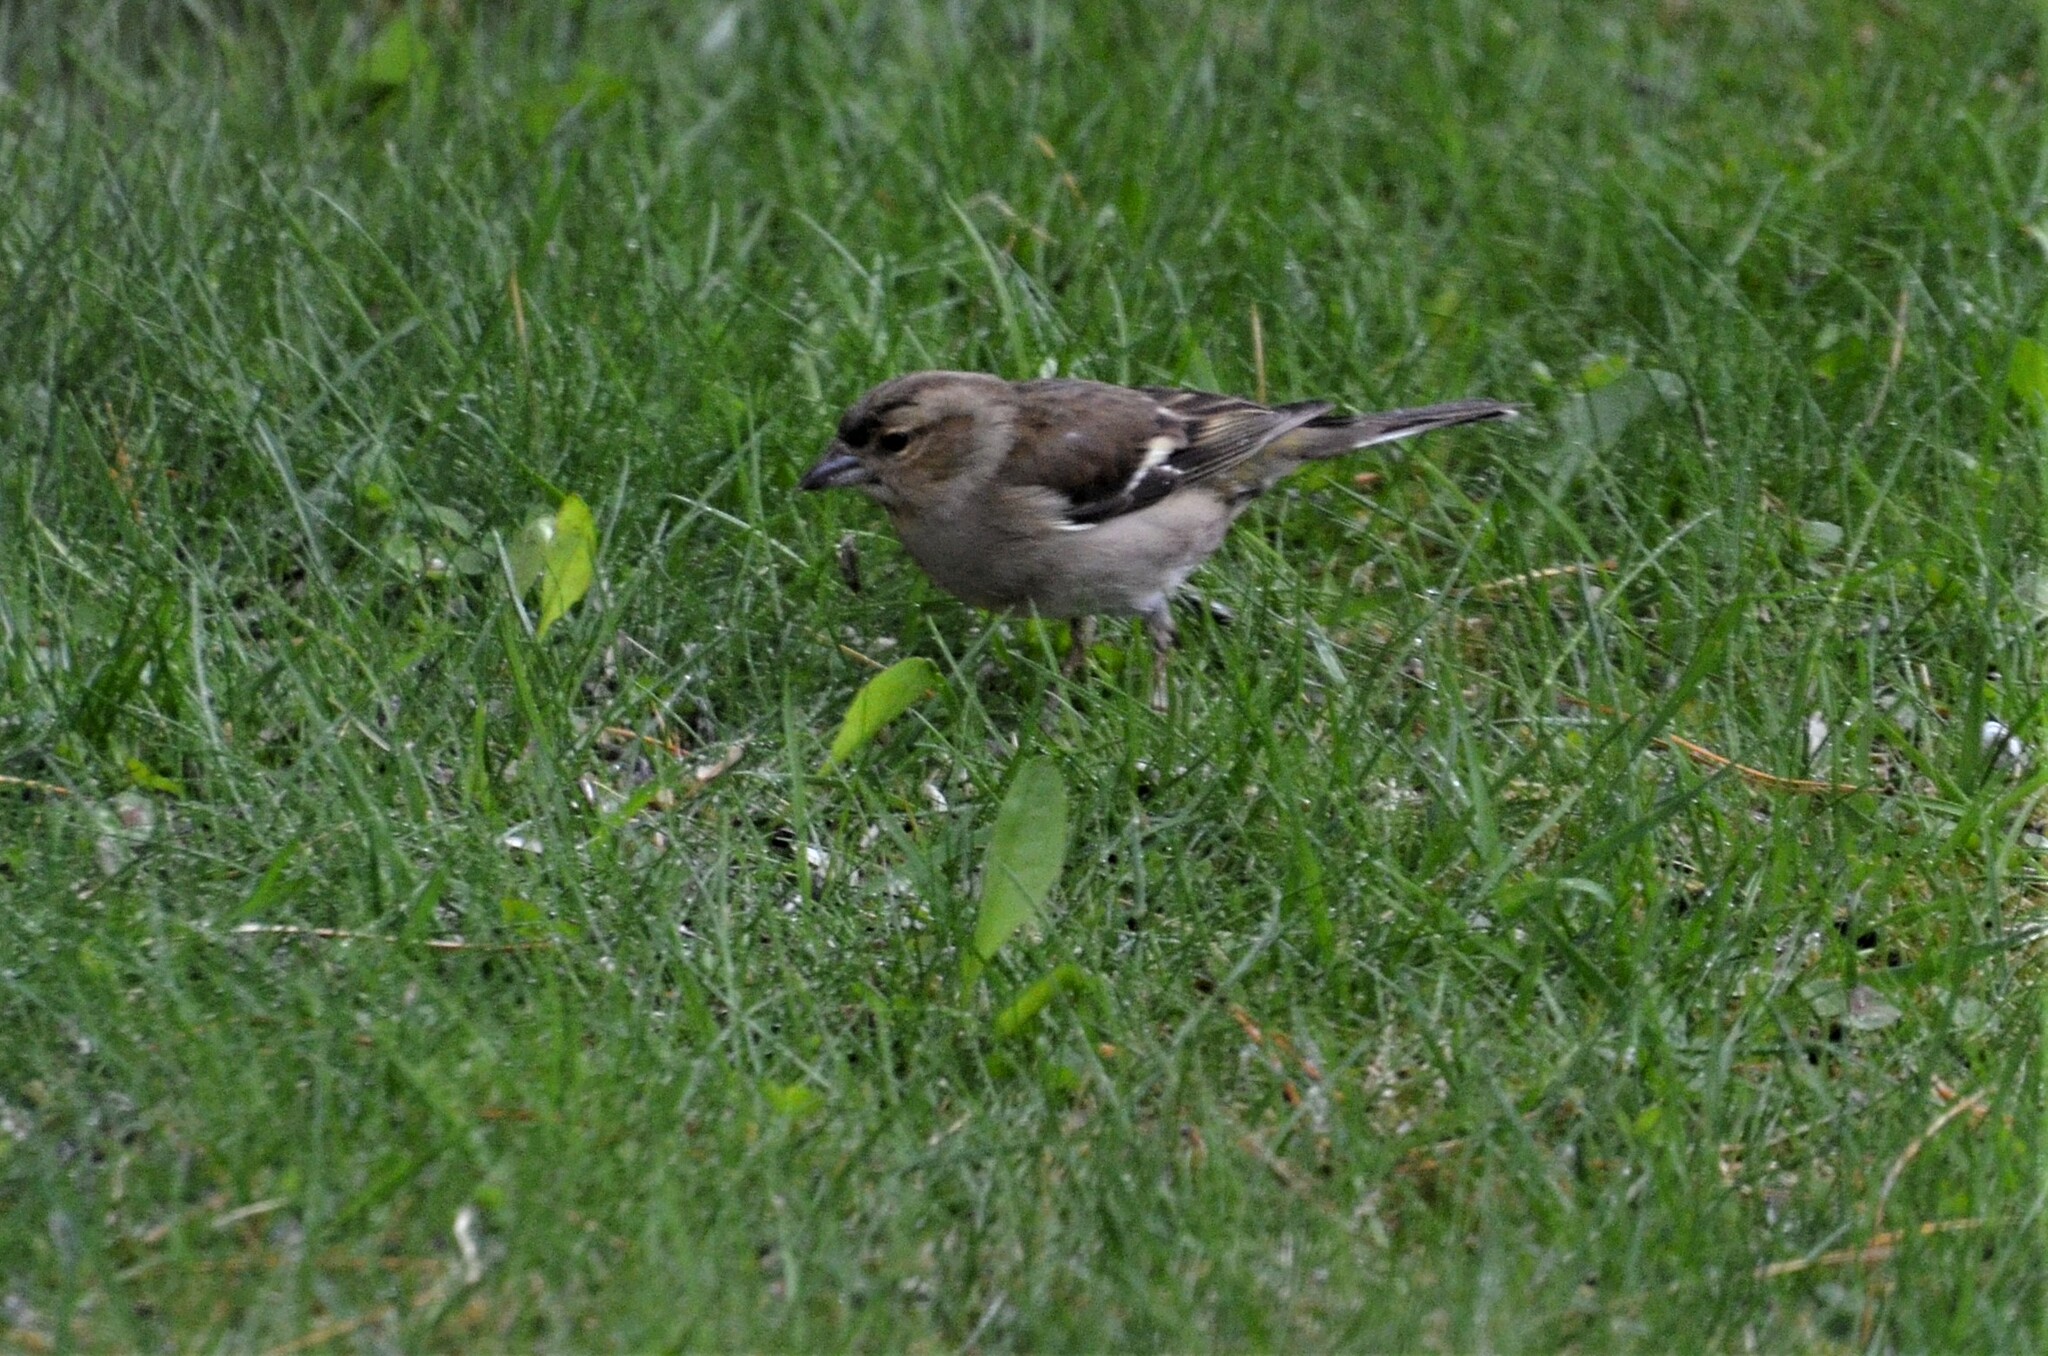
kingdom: Animalia
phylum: Chordata
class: Aves
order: Passeriformes
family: Fringillidae
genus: Fringilla
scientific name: Fringilla coelebs
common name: Common chaffinch
